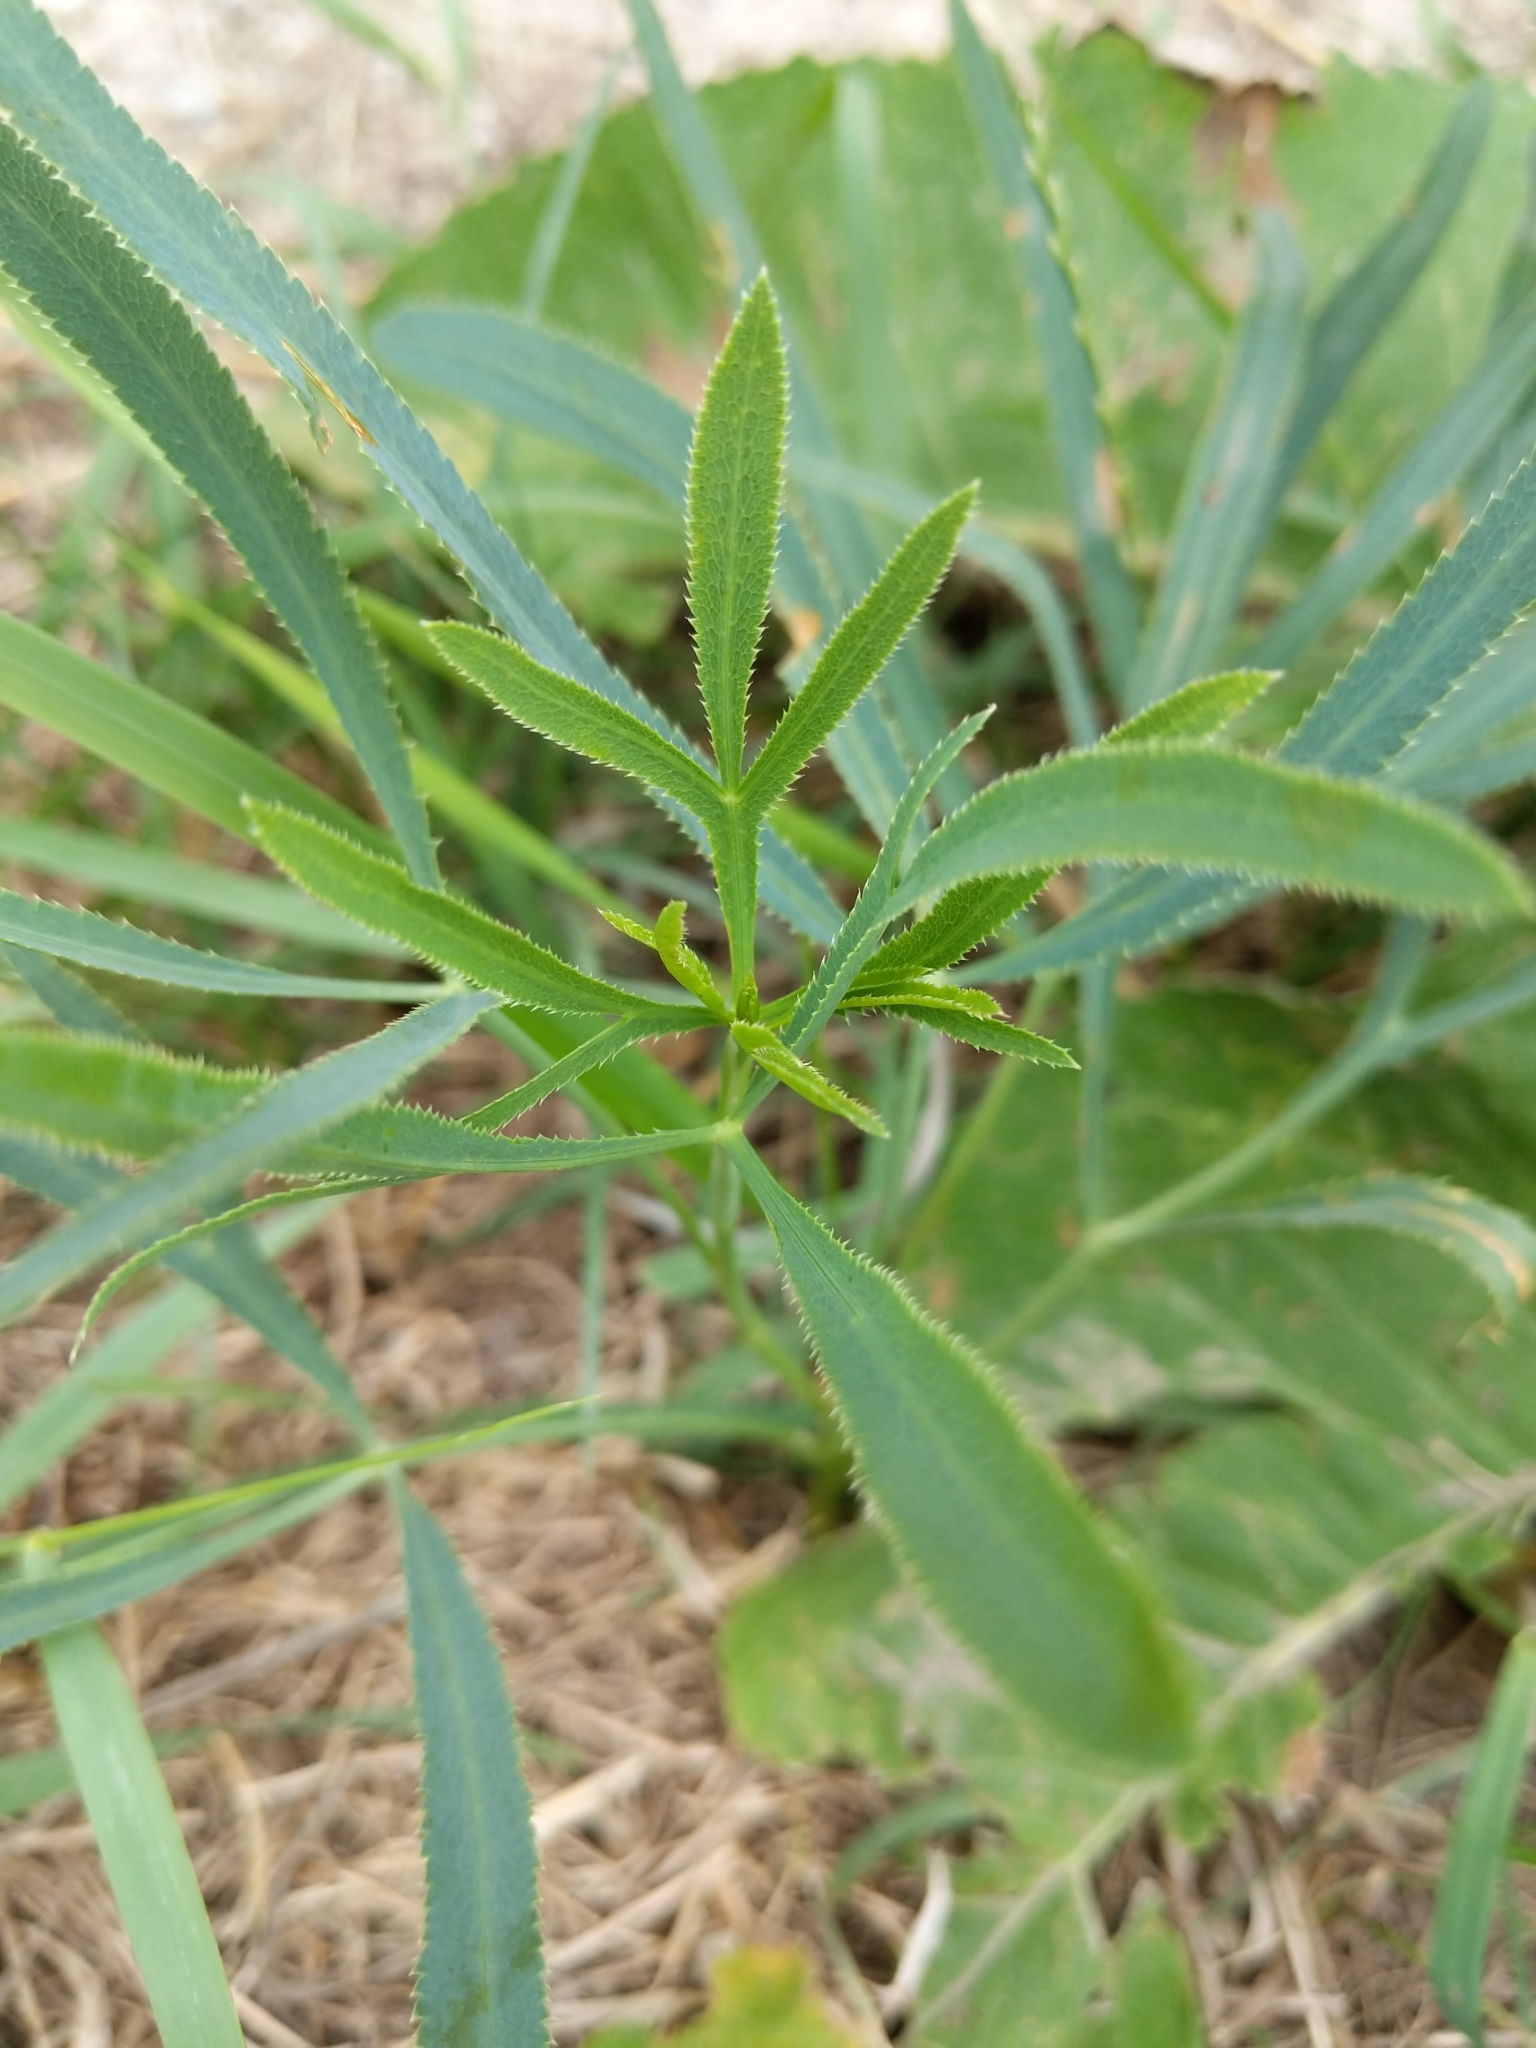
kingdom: Plantae
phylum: Tracheophyta
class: Magnoliopsida
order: Apiales
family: Apiaceae
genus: Falcaria
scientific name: Falcaria vulgaris
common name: Longleaf
